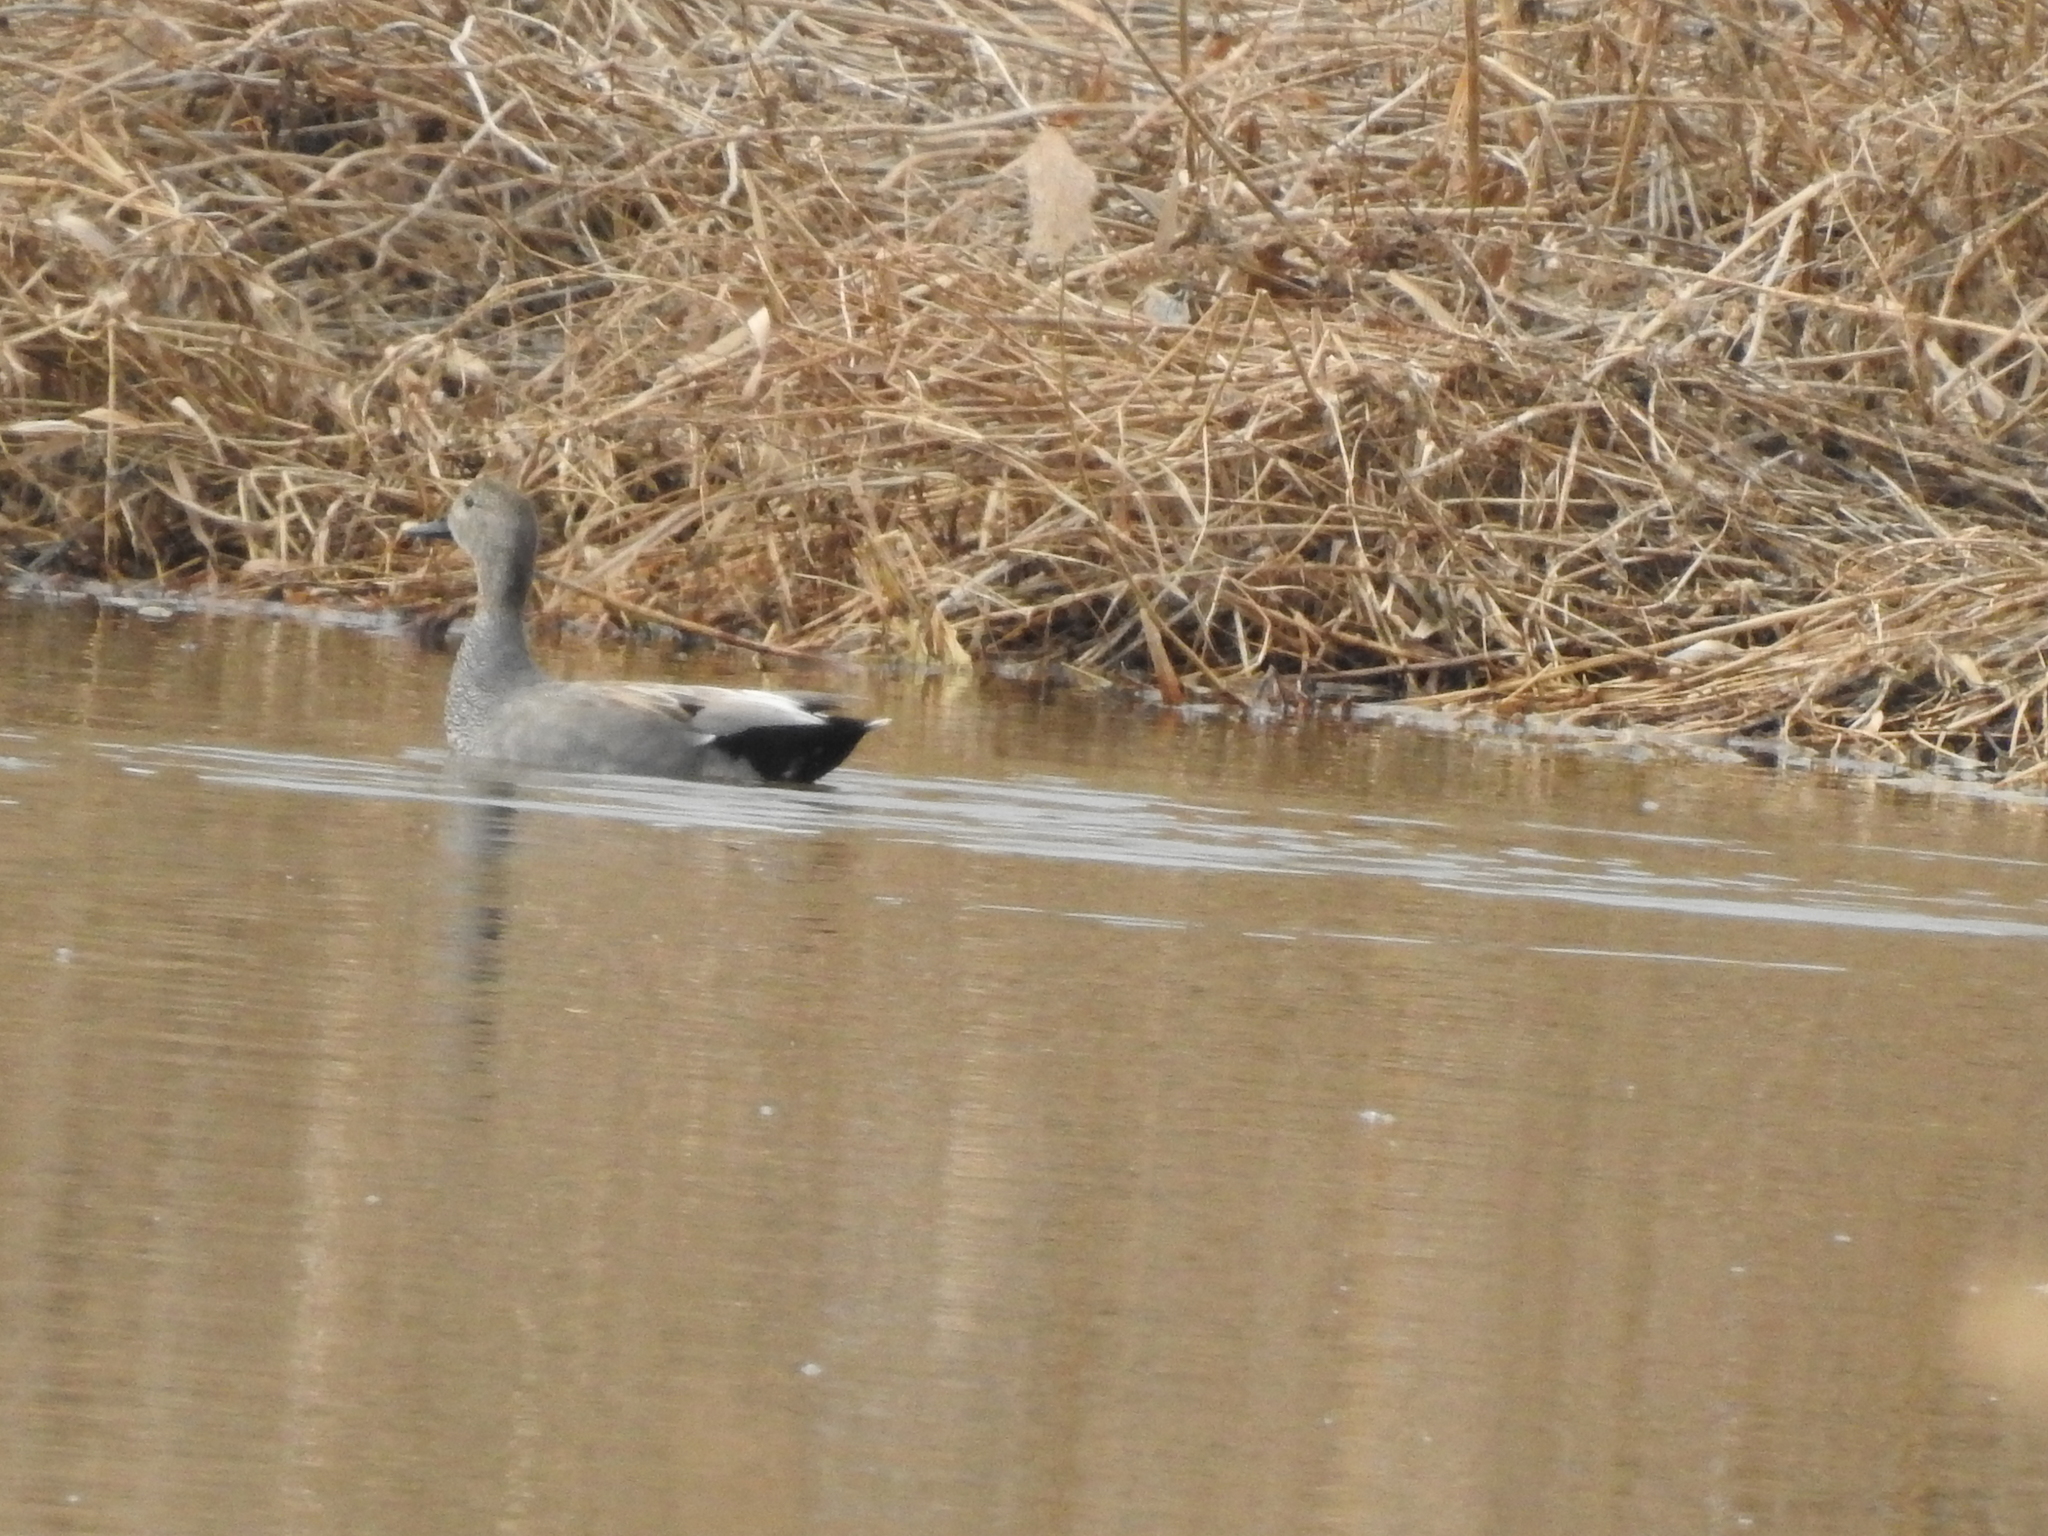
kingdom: Animalia
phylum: Chordata
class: Aves
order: Anseriformes
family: Anatidae
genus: Mareca
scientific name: Mareca strepera
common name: Gadwall
